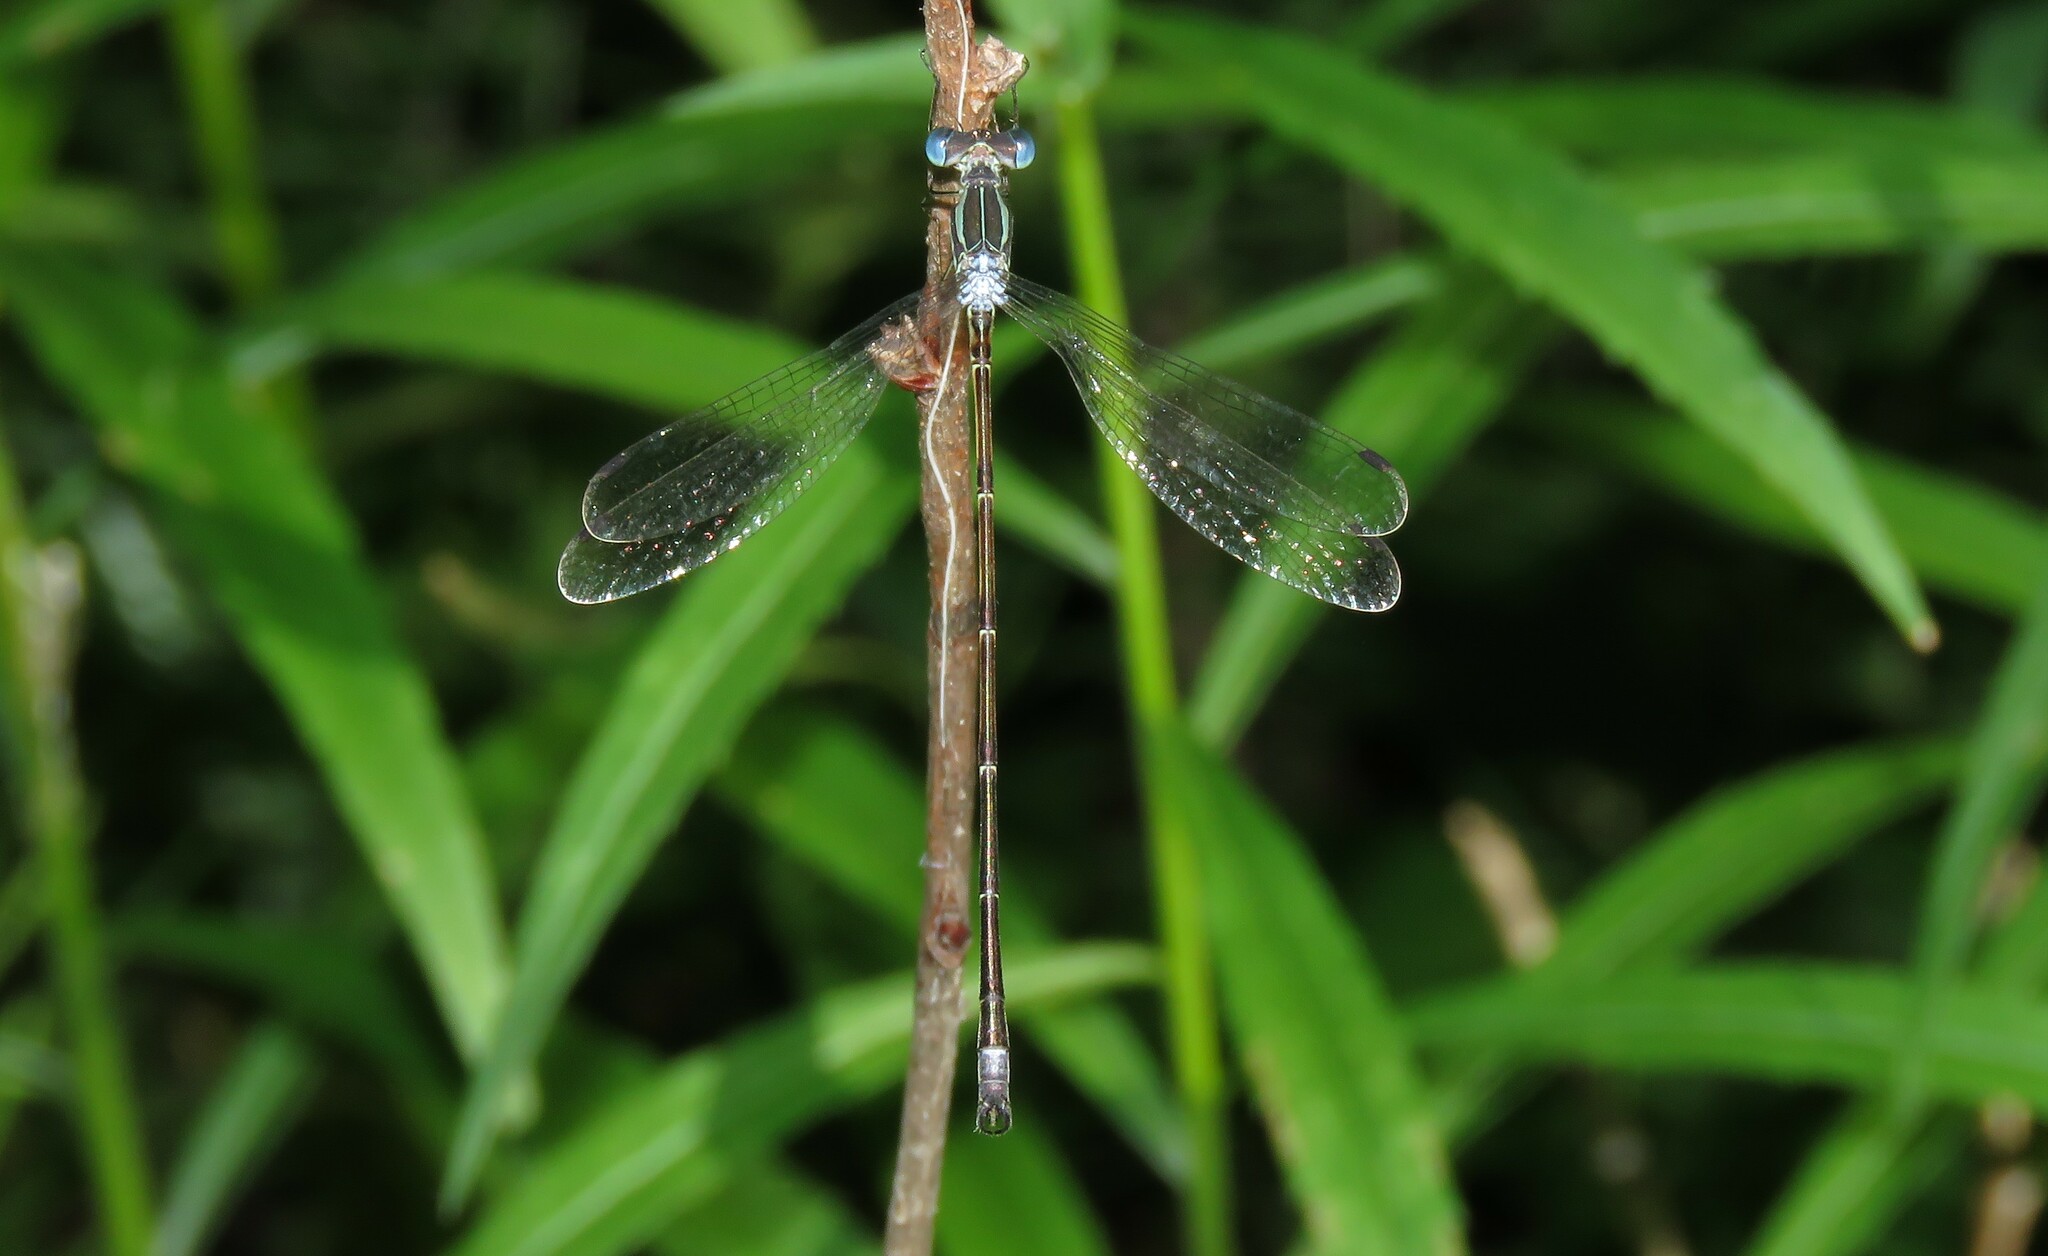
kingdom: Animalia
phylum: Arthropoda
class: Insecta
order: Odonata
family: Lestidae
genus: Lestes
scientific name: Lestes rectangularis
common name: Slender spreadwing
